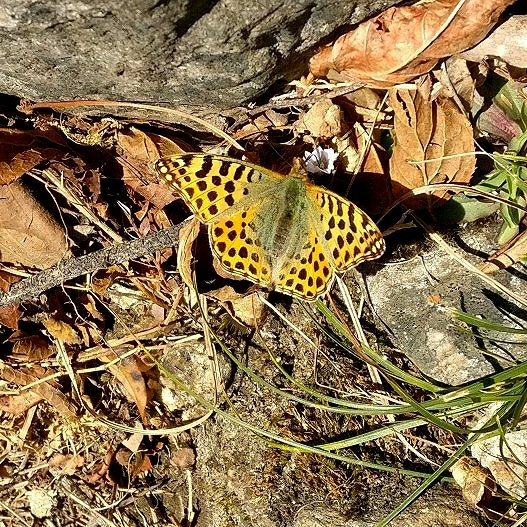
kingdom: Animalia
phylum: Arthropoda
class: Insecta
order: Lepidoptera
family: Nymphalidae
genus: Issoria
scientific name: Issoria
